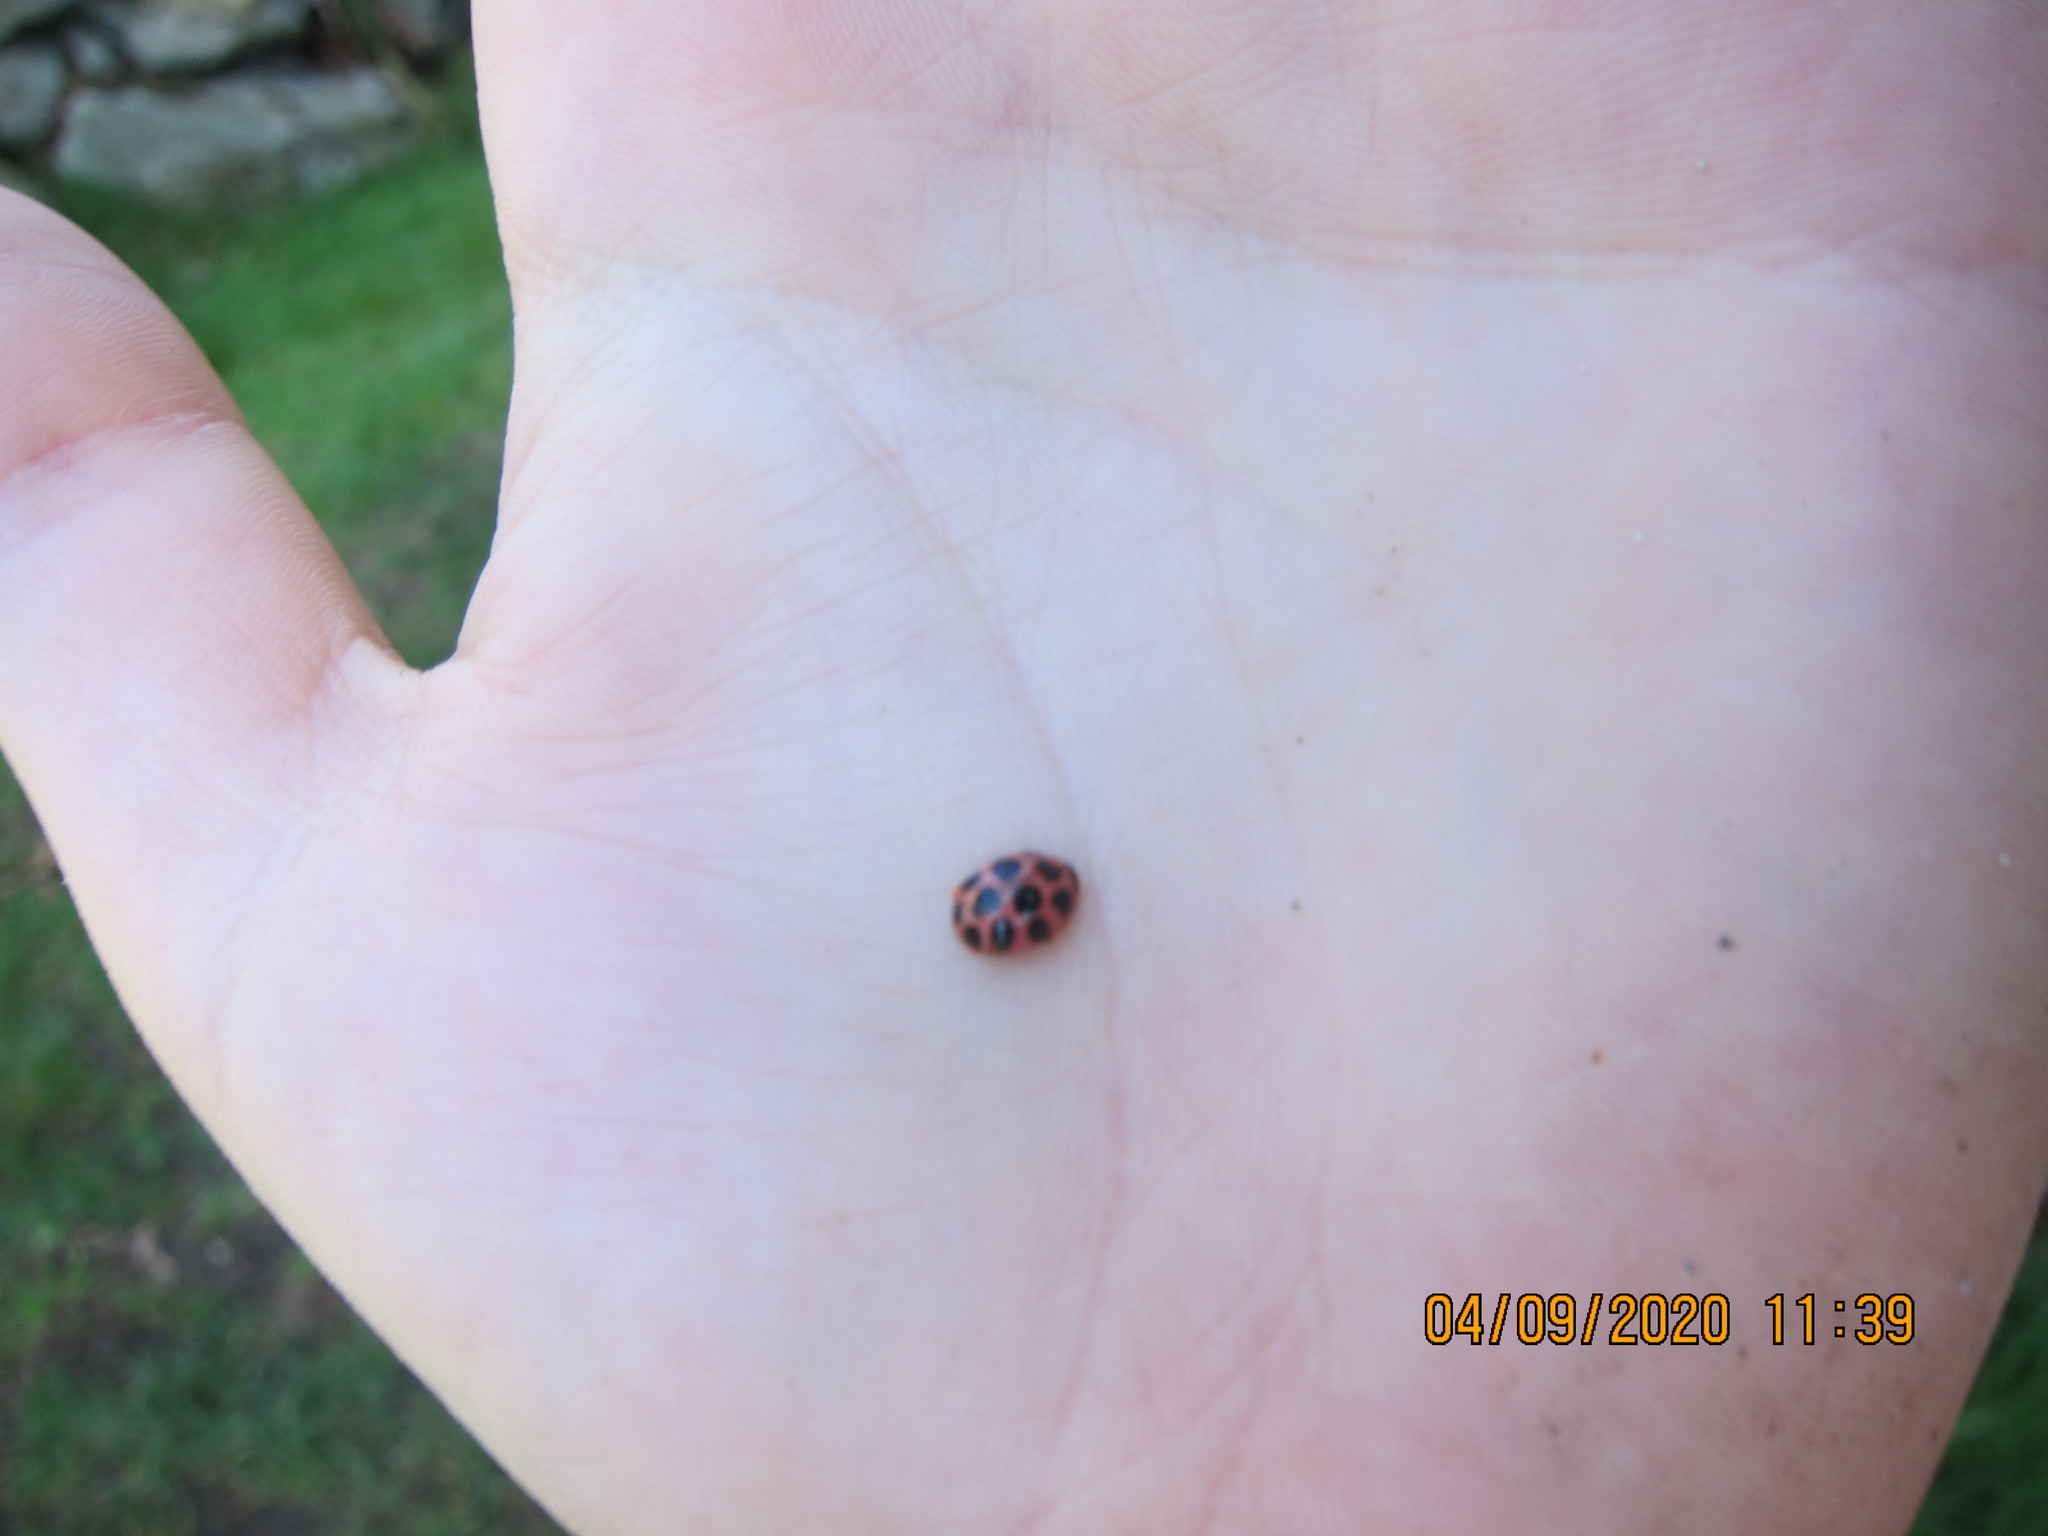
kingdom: Animalia
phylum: Arthropoda
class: Insecta
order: Coleoptera
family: Coccinellidae
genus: Calvia
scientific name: Calvia quatuordecimguttata
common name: Cream-spot ladybird
